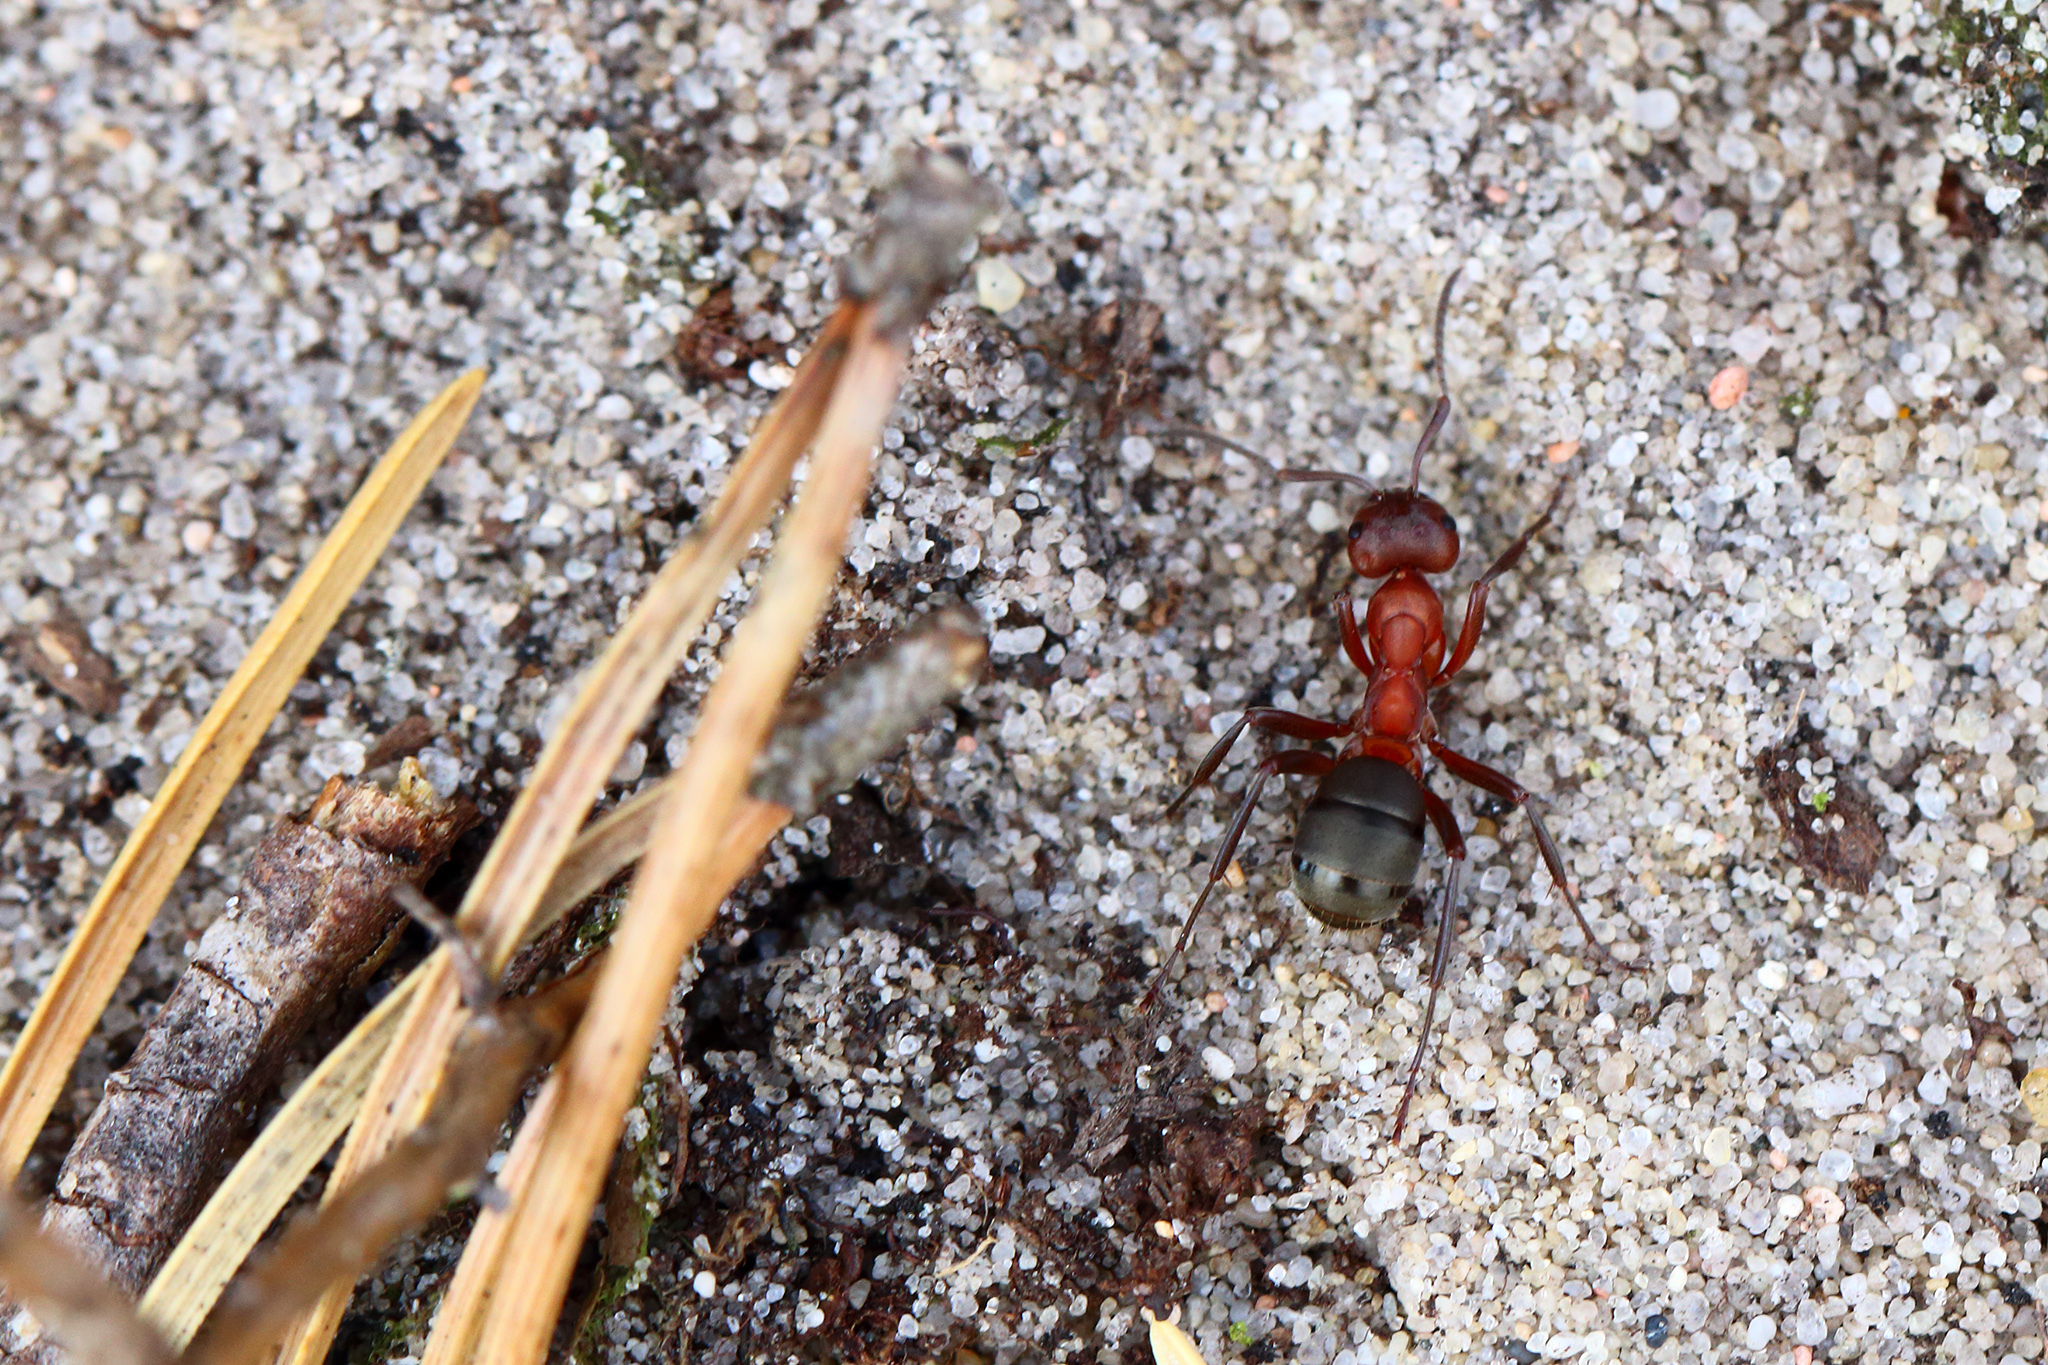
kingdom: Animalia
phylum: Arthropoda
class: Insecta
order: Hymenoptera
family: Formicidae
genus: Formica
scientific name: Formica sanguinea
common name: Blood-red ant
